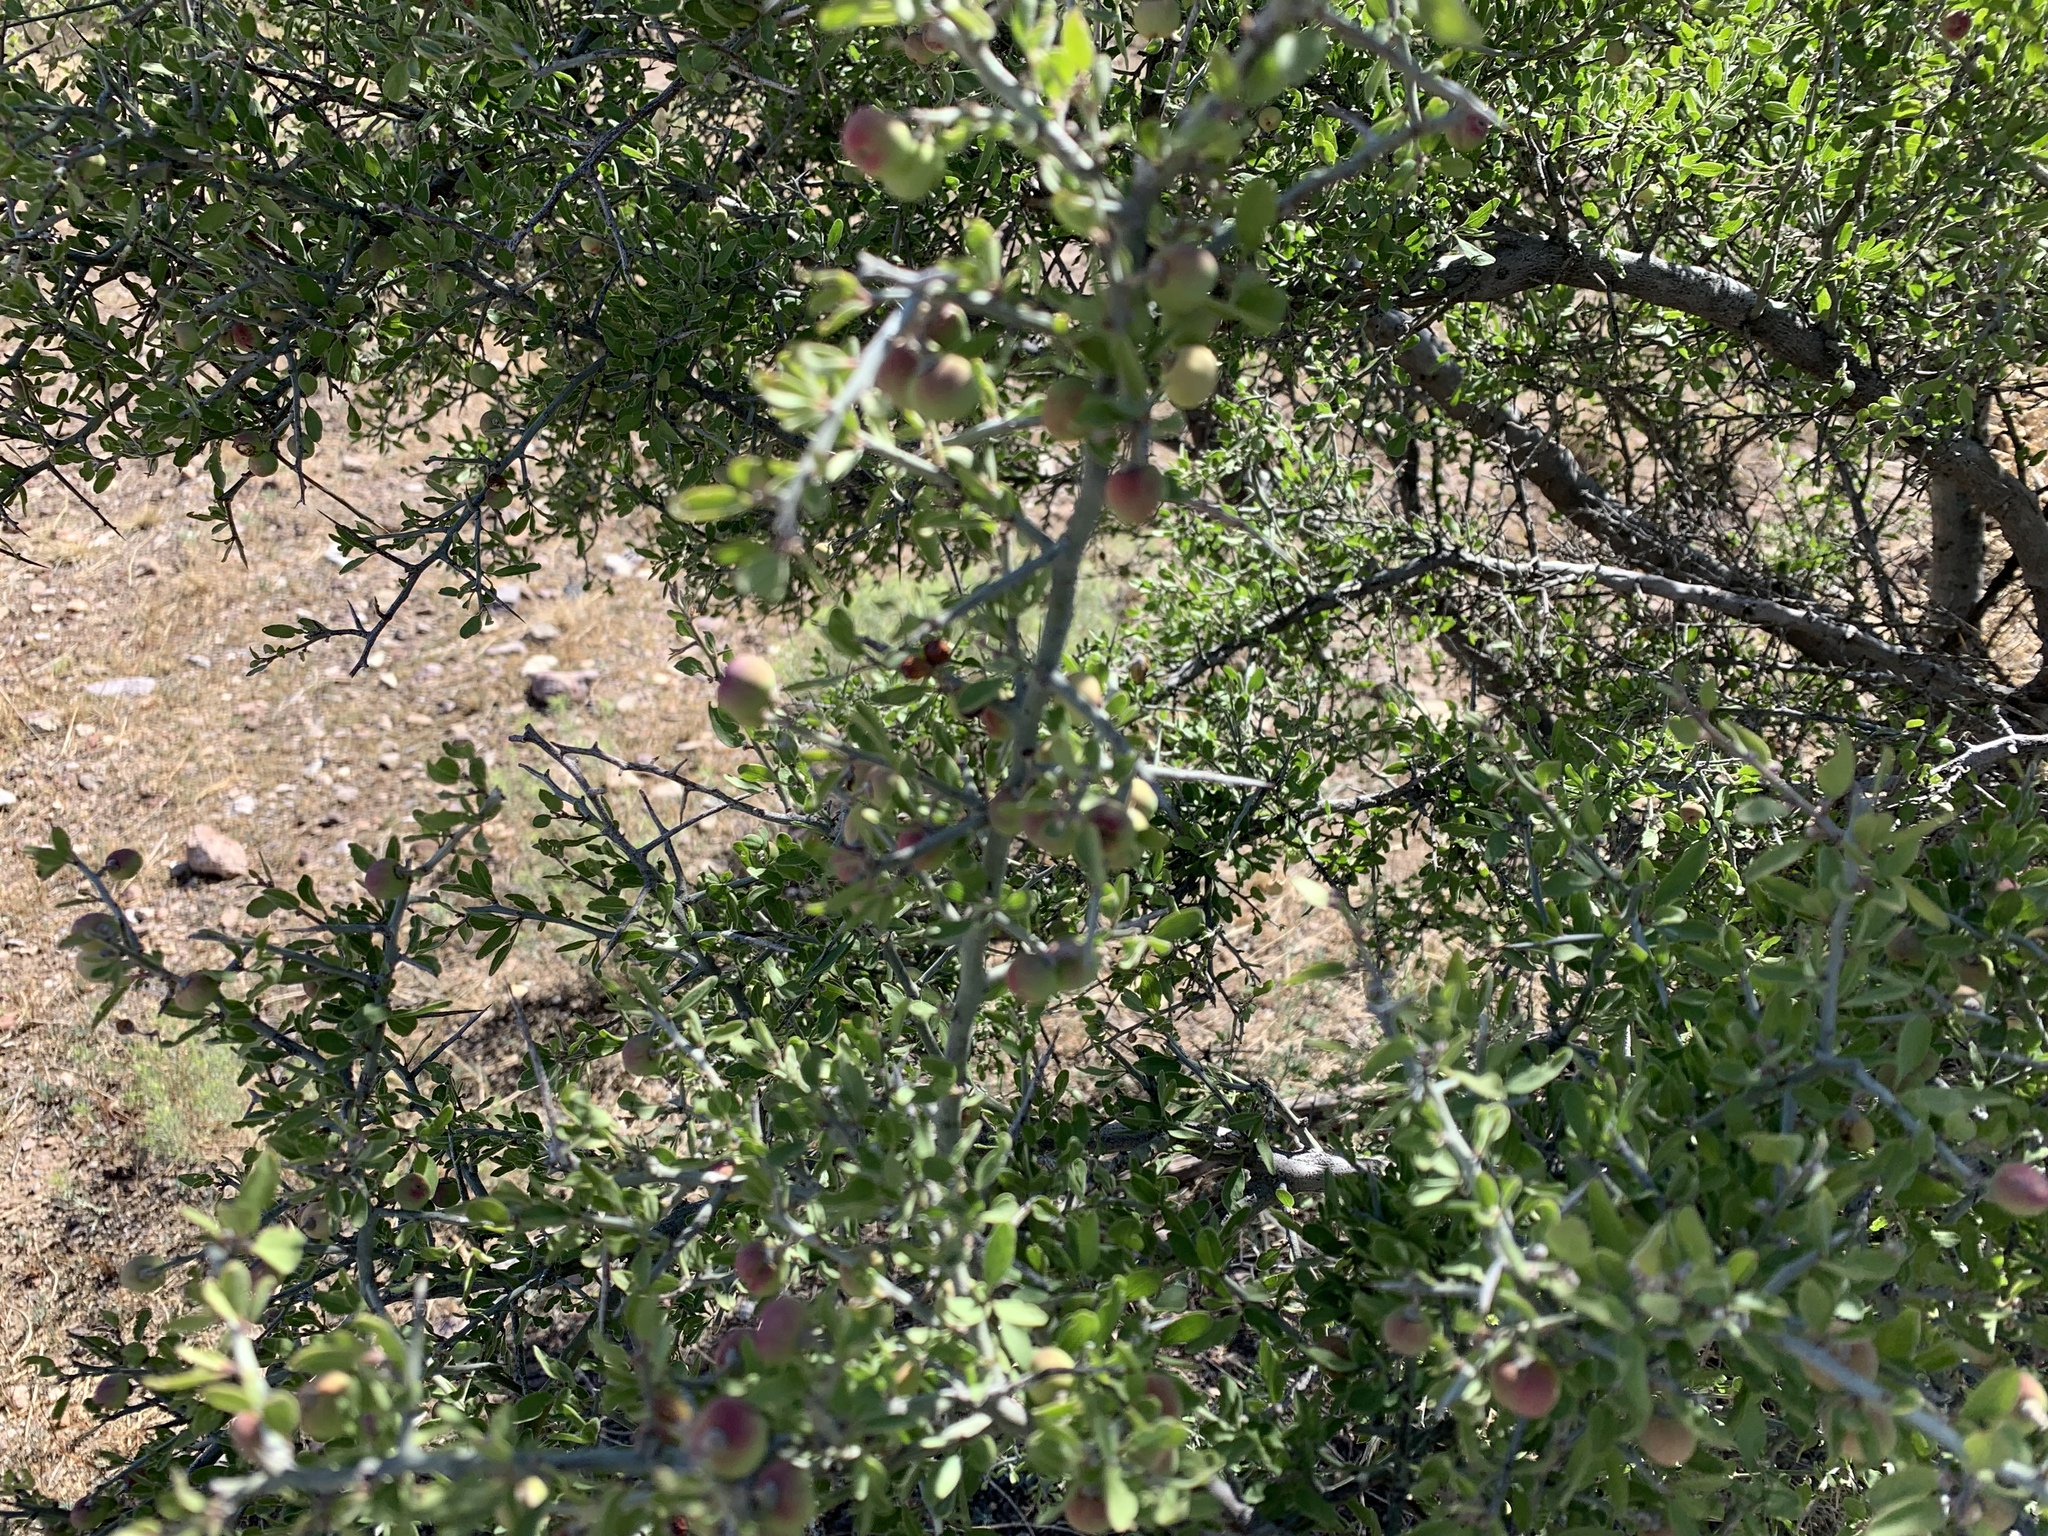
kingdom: Plantae
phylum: Tracheophyta
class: Magnoliopsida
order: Rosales
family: Rhamnaceae
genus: Sarcomphalus
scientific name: Sarcomphalus obtusifolius
